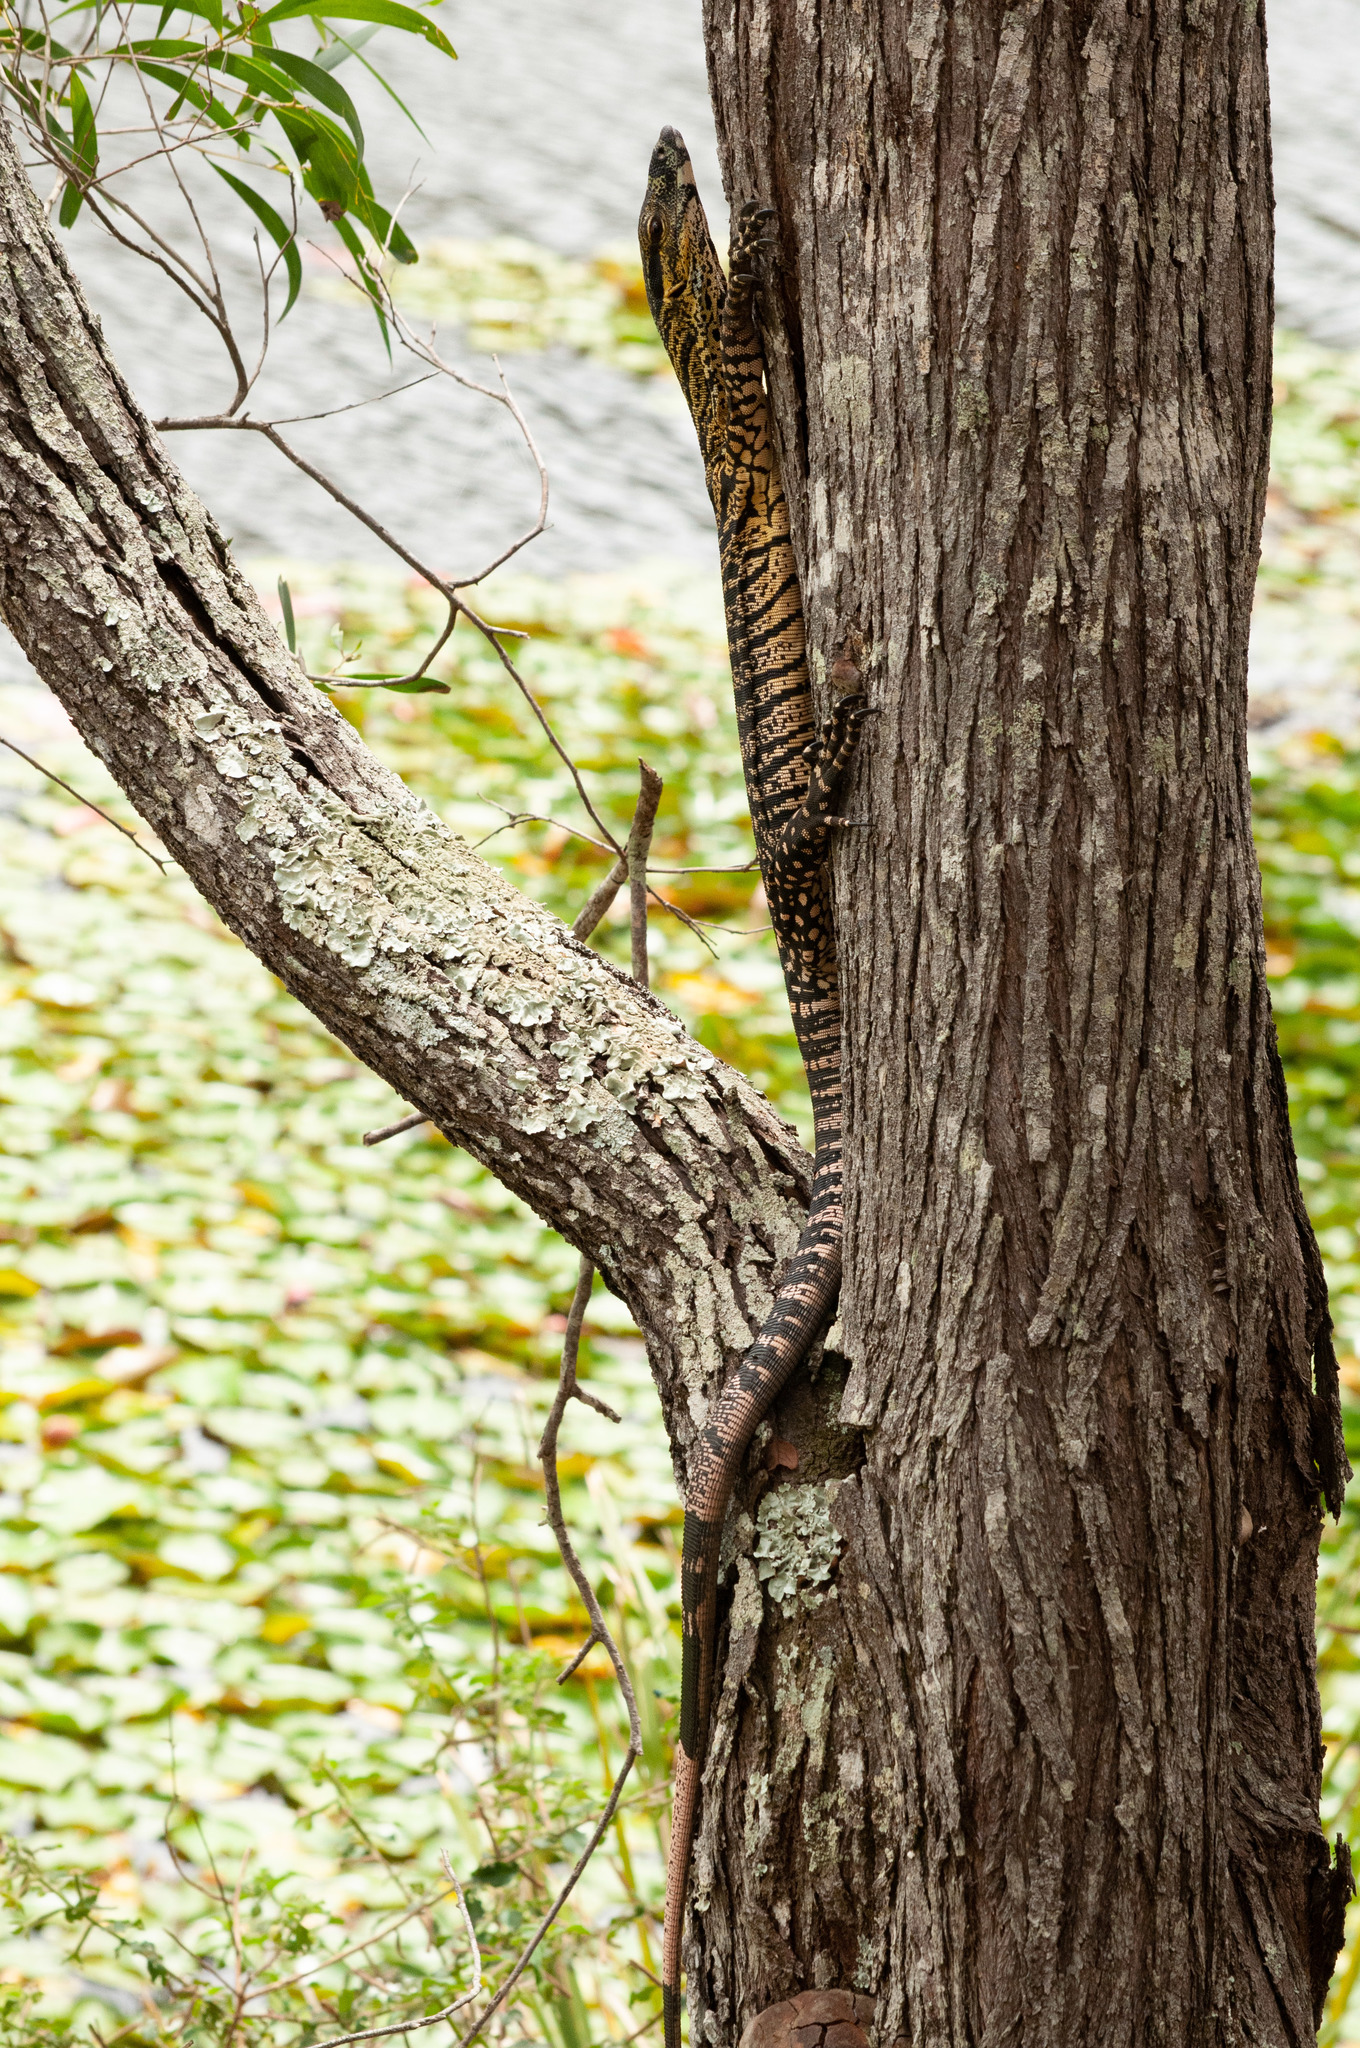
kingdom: Animalia
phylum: Chordata
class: Squamata
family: Varanidae
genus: Varanus
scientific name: Varanus varius
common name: Lace monitor
